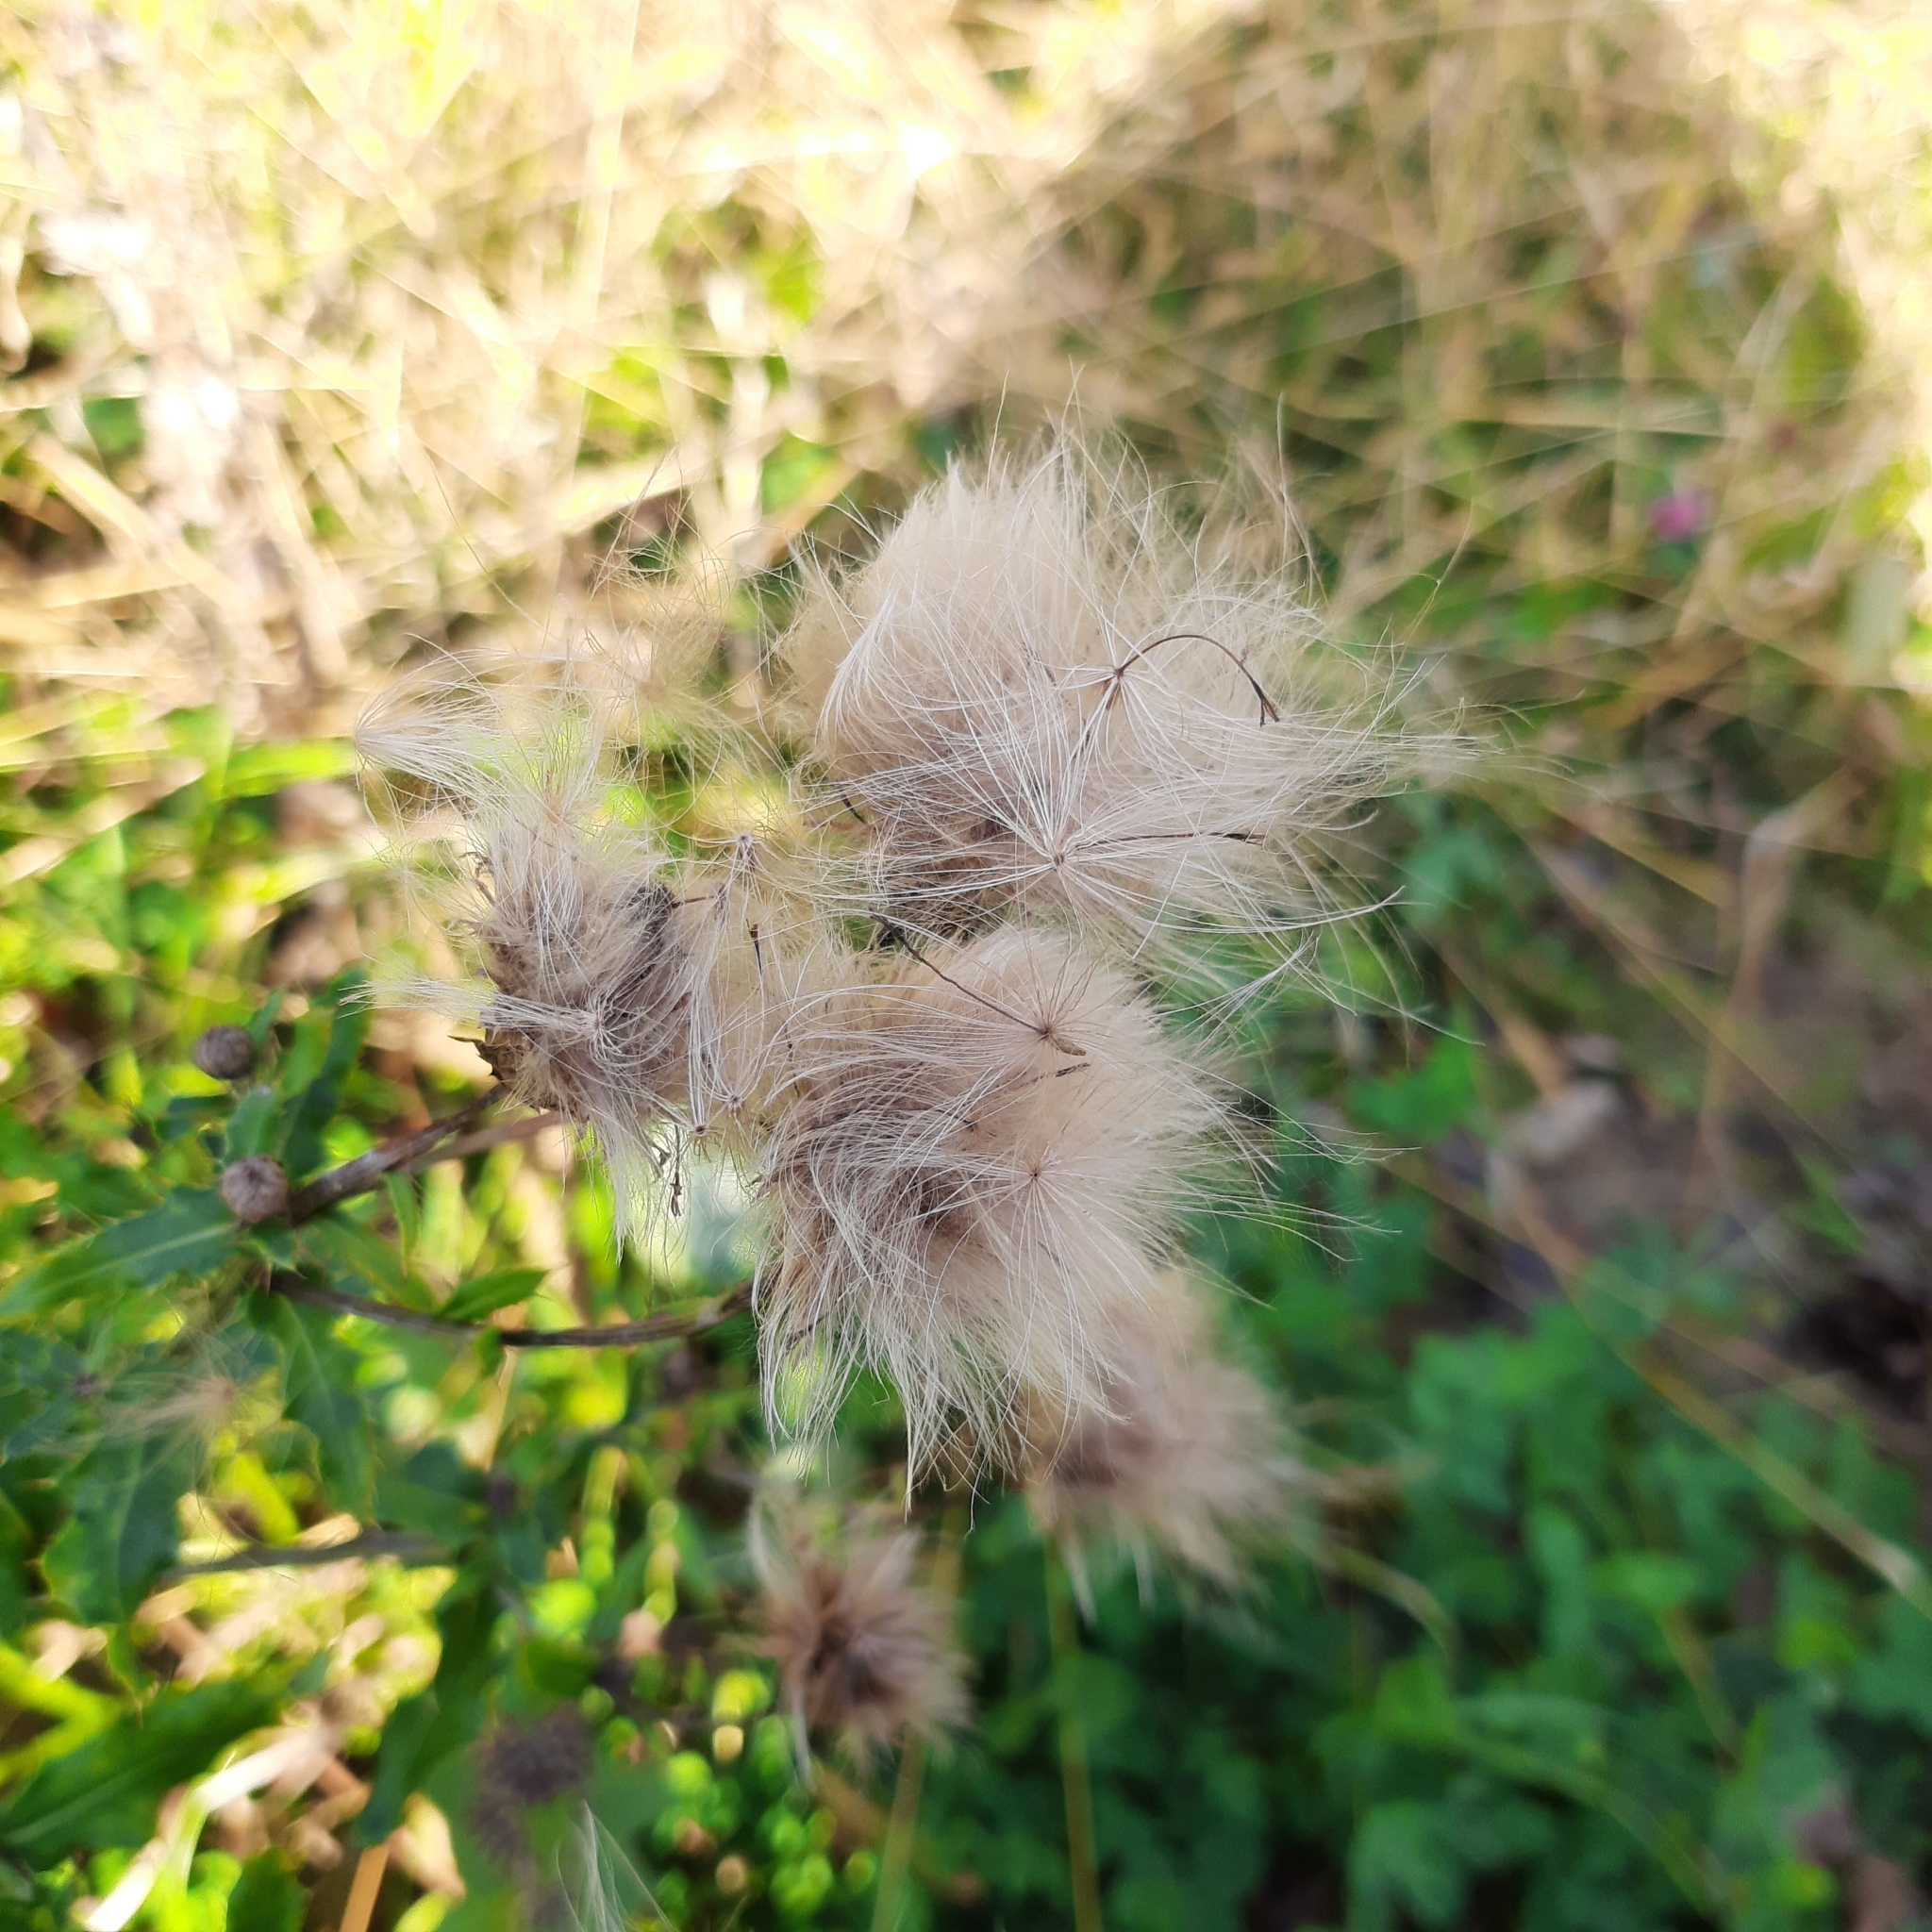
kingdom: Plantae
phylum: Tracheophyta
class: Magnoliopsida
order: Asterales
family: Asteraceae
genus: Cirsium
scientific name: Cirsium arvense
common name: Creeping thistle
